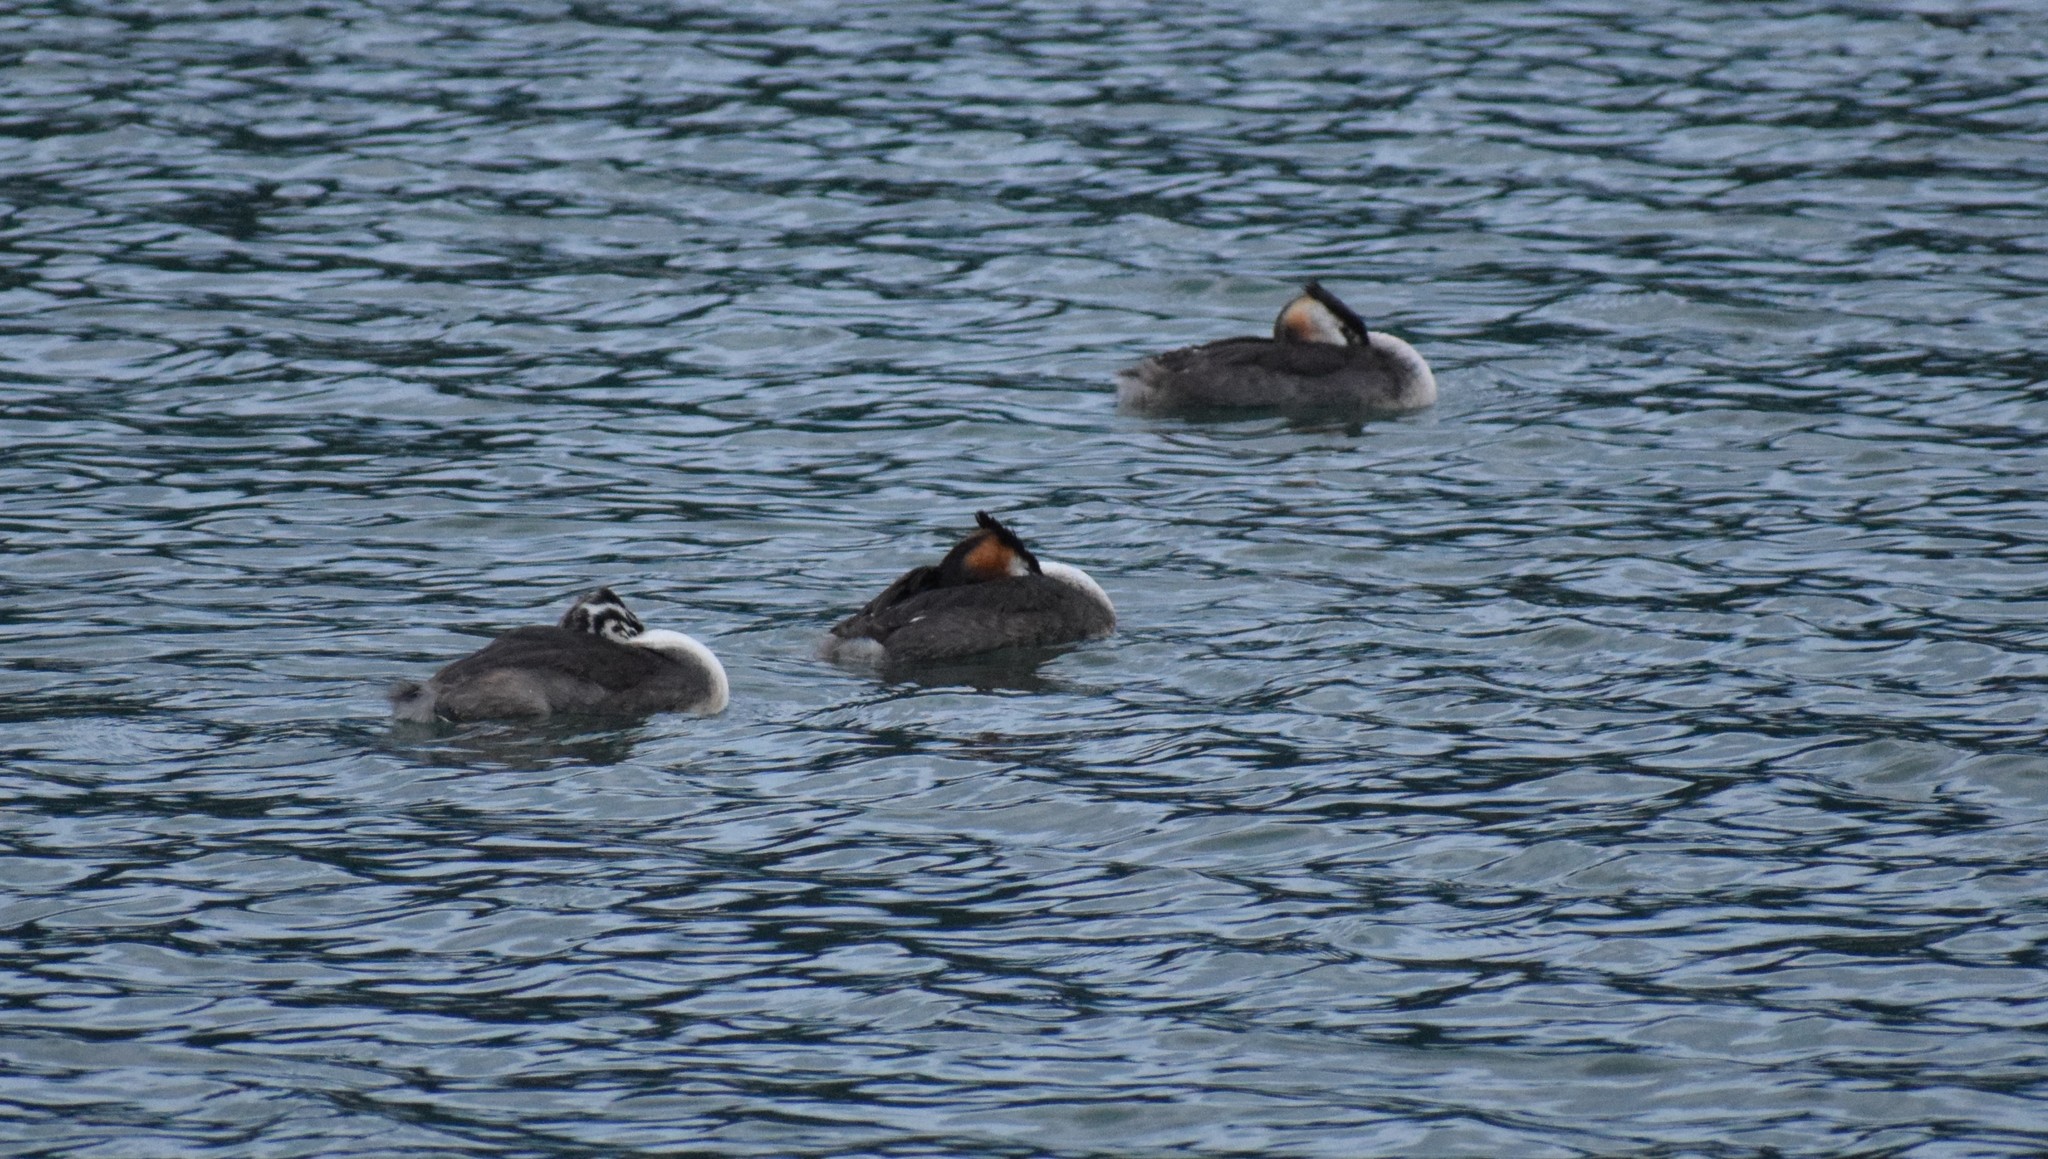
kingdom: Animalia
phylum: Chordata
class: Aves
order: Podicipediformes
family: Podicipedidae
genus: Podiceps
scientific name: Podiceps cristatus
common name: Great crested grebe
